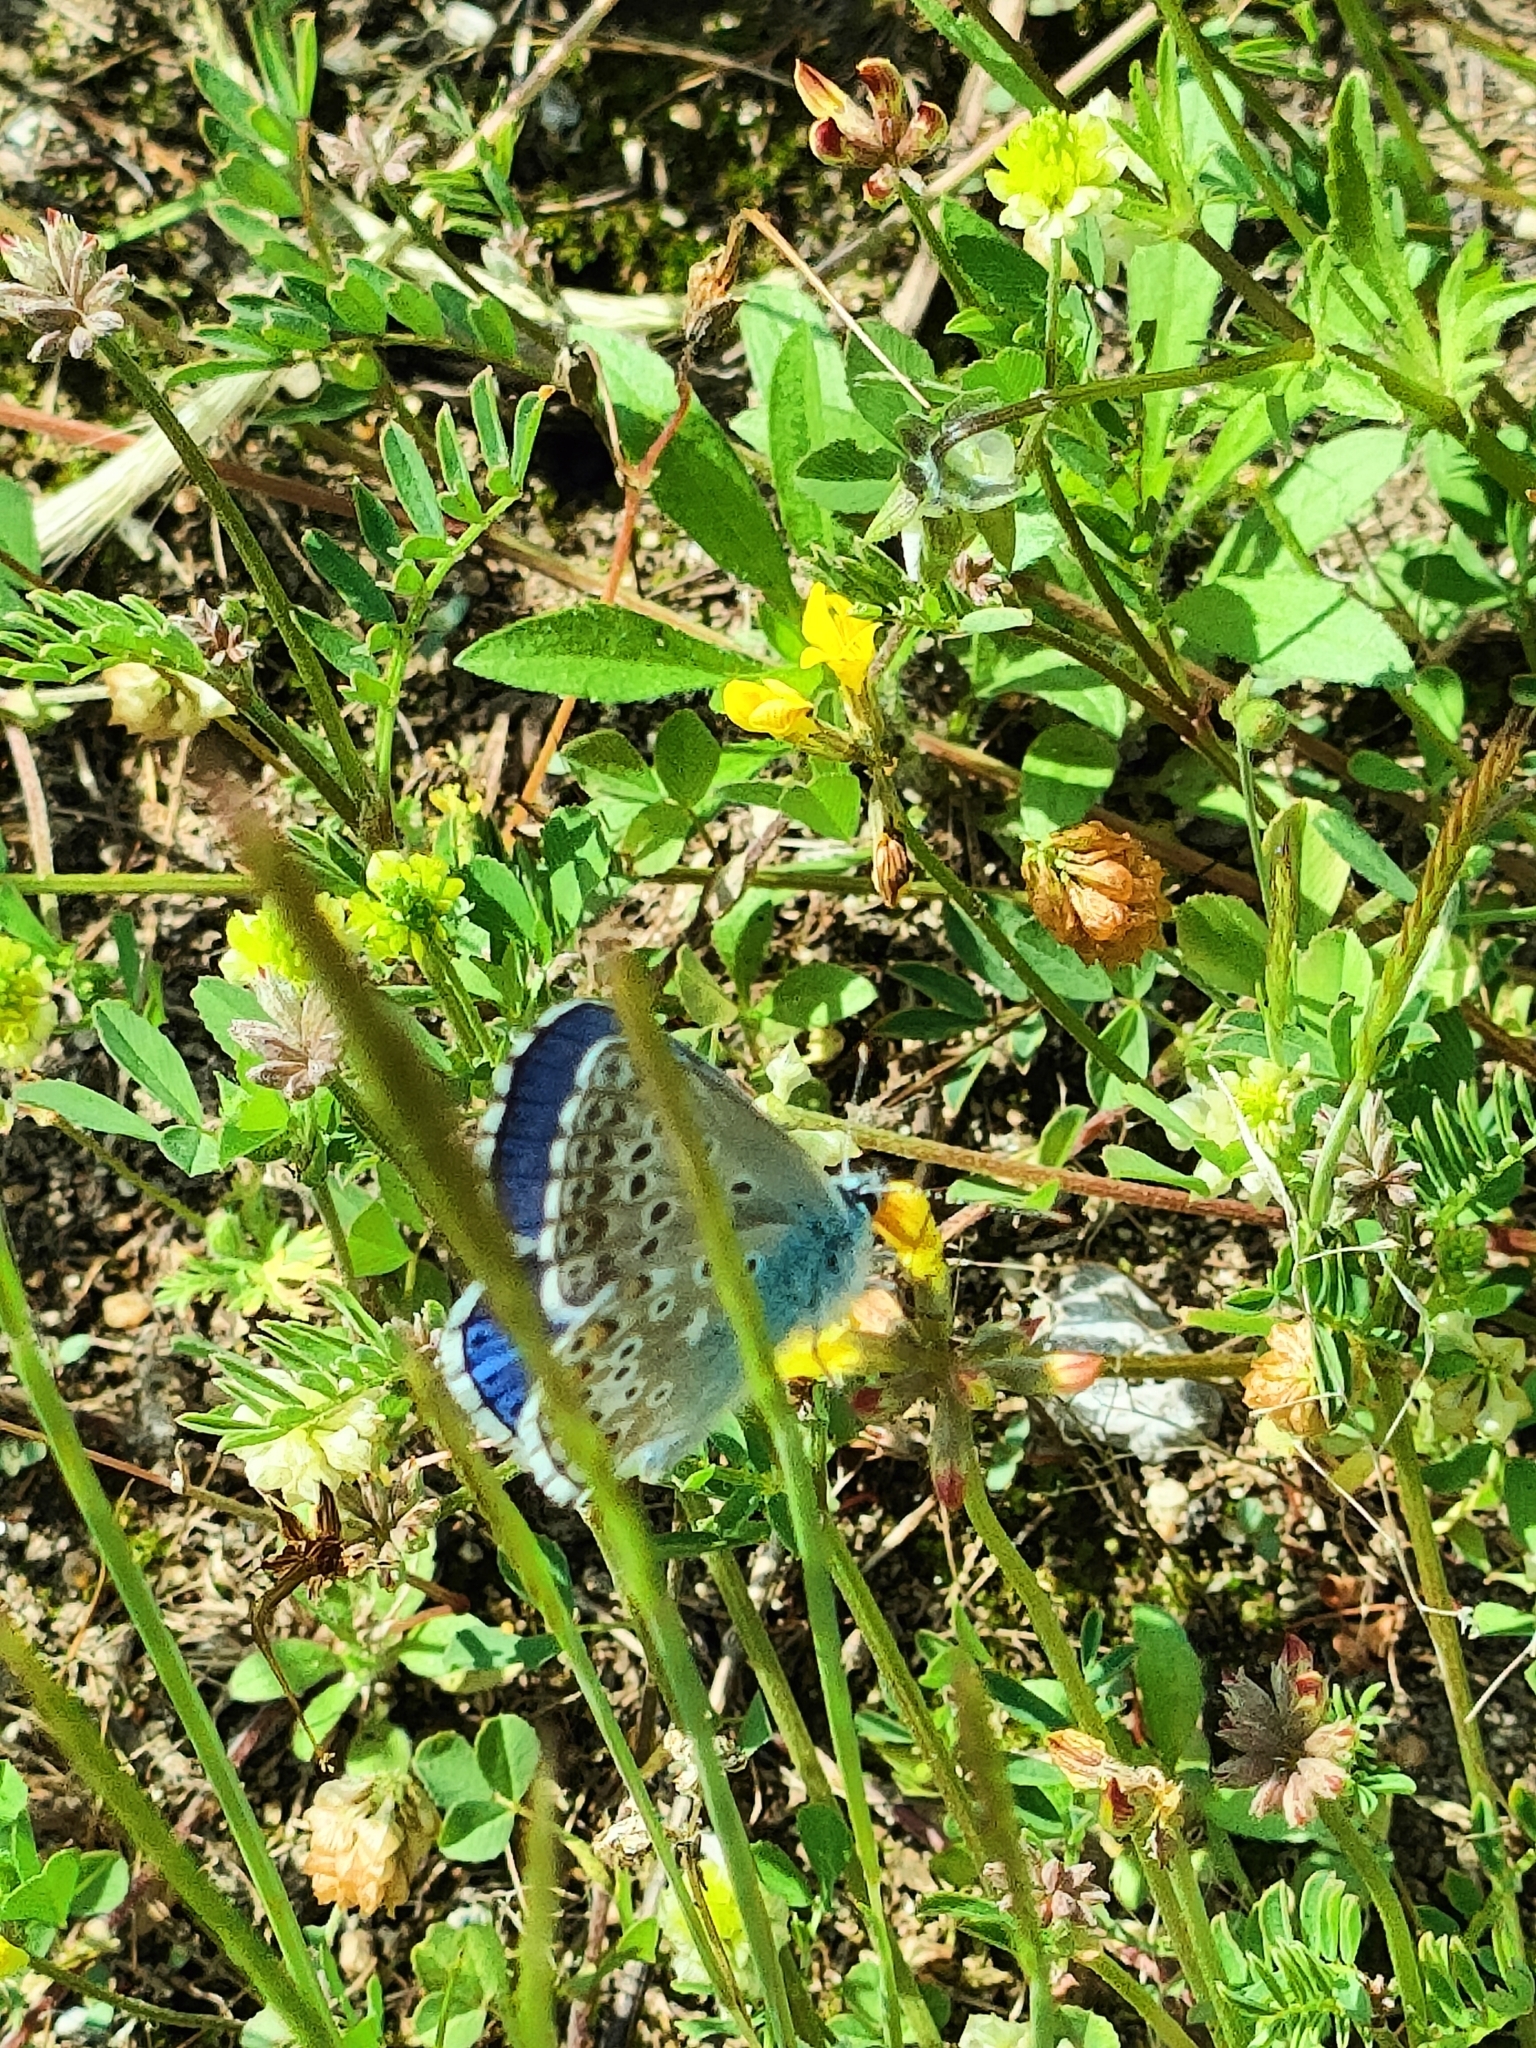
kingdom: Animalia
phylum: Arthropoda
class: Insecta
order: Lepidoptera
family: Lycaenidae
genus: Lysandra
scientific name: Lysandra bellargus
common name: Adonis blue
